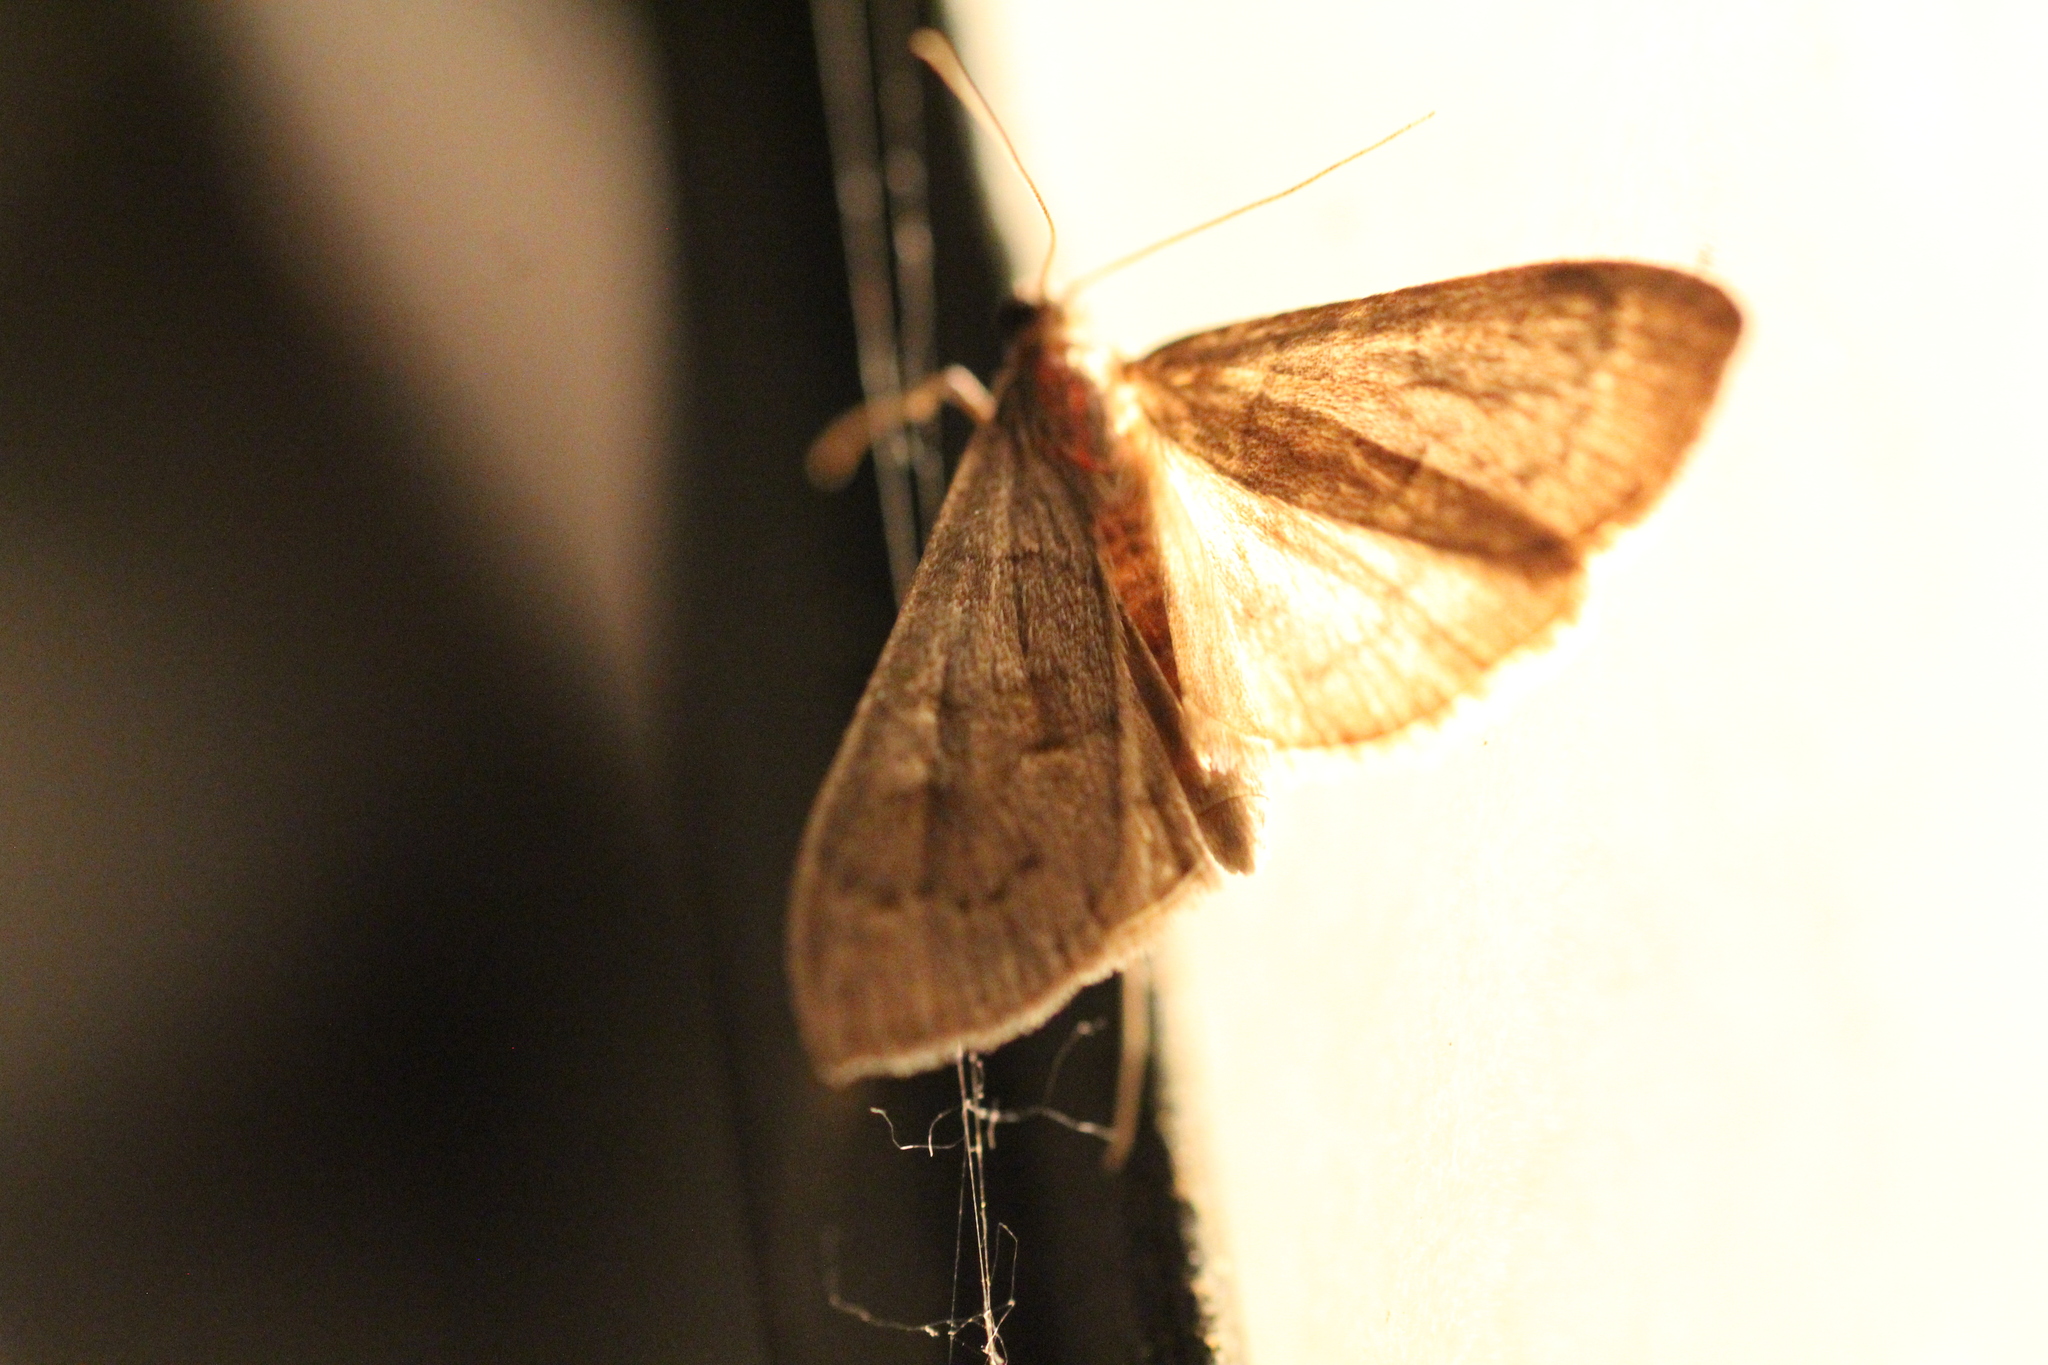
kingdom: Animalia
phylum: Arthropoda
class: Insecta
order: Lepidoptera
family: Crambidae
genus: Mecyna
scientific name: Mecyna asinalis
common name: Coastal pearl
